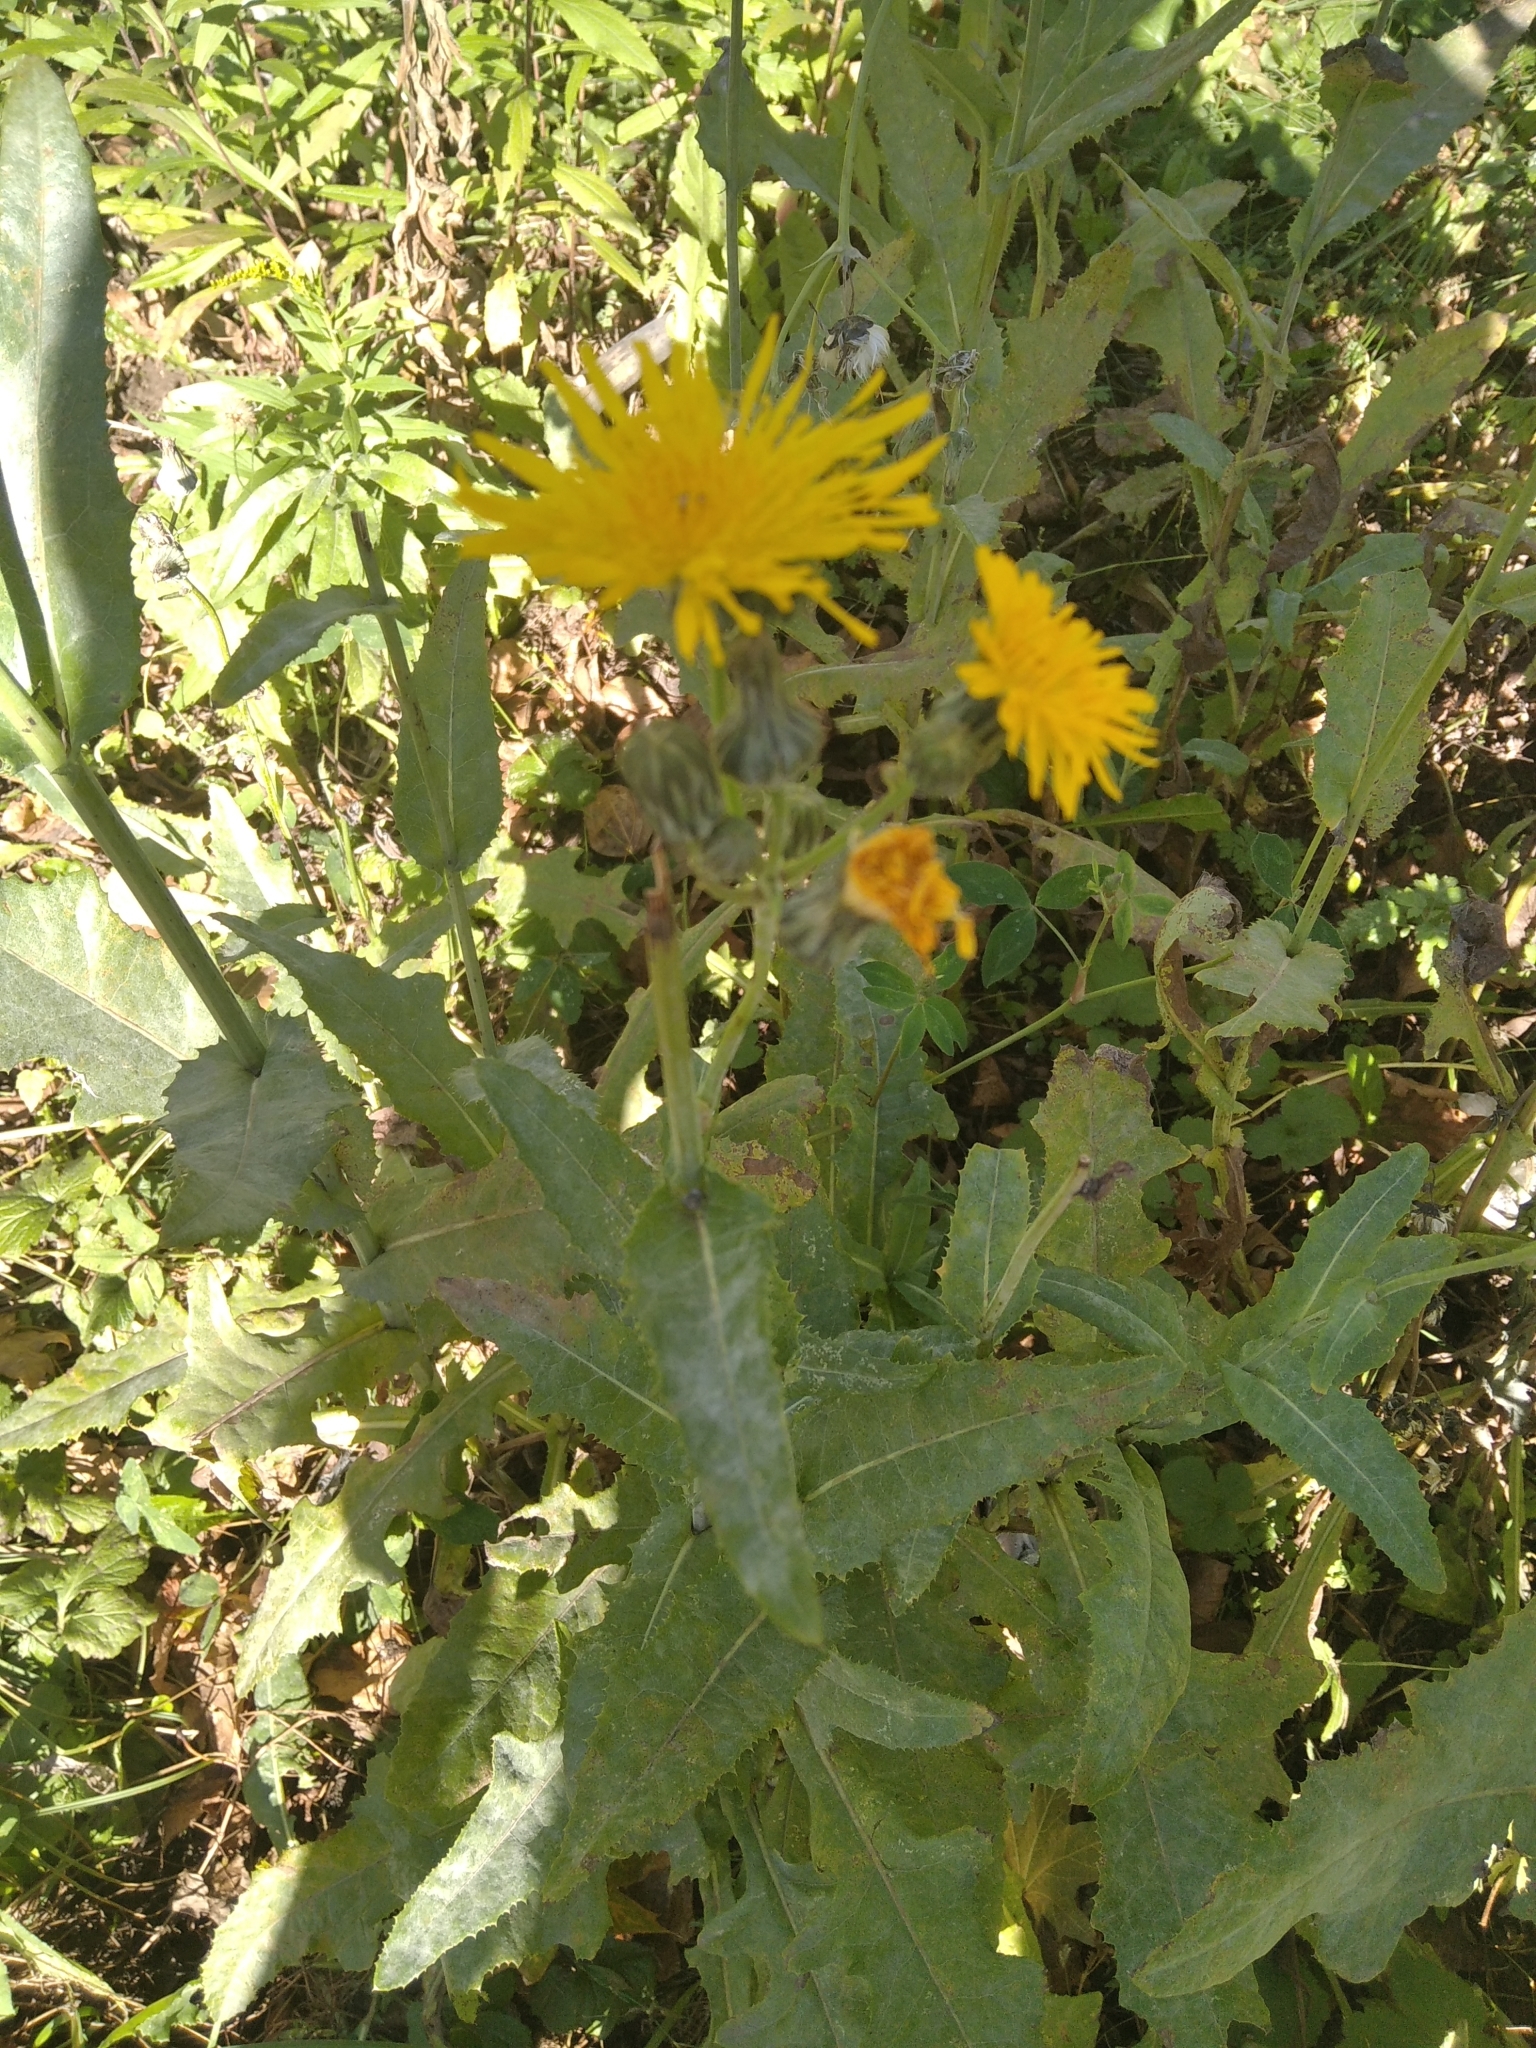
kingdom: Plantae
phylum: Tracheophyta
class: Magnoliopsida
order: Asterales
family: Asteraceae
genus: Sonchus
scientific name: Sonchus arvensis
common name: Perennial sow-thistle
